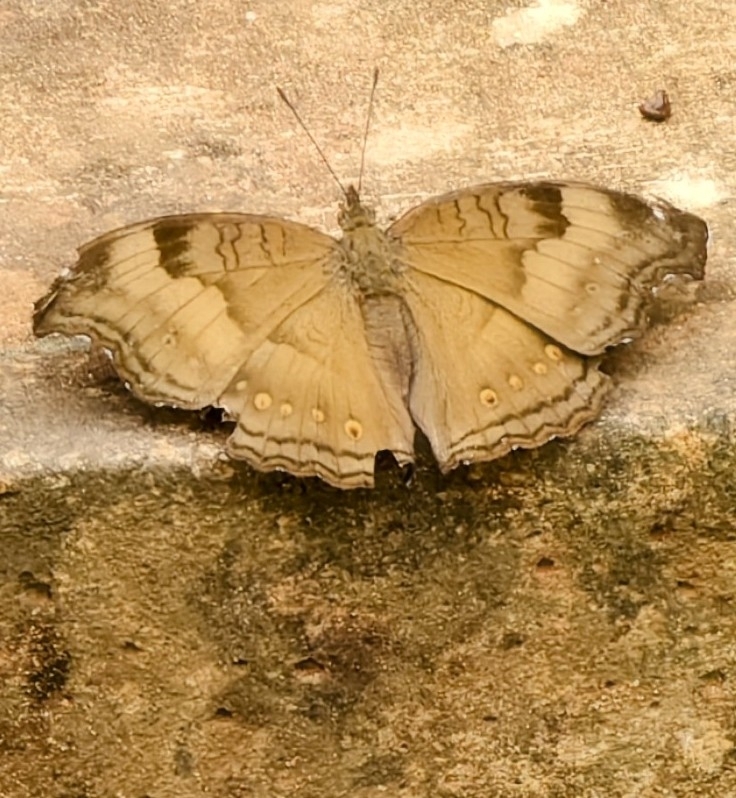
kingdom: Animalia
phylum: Arthropoda
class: Insecta
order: Lepidoptera
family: Nymphalidae
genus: Junonia
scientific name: Junonia iphita
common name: Chocolate pansy
